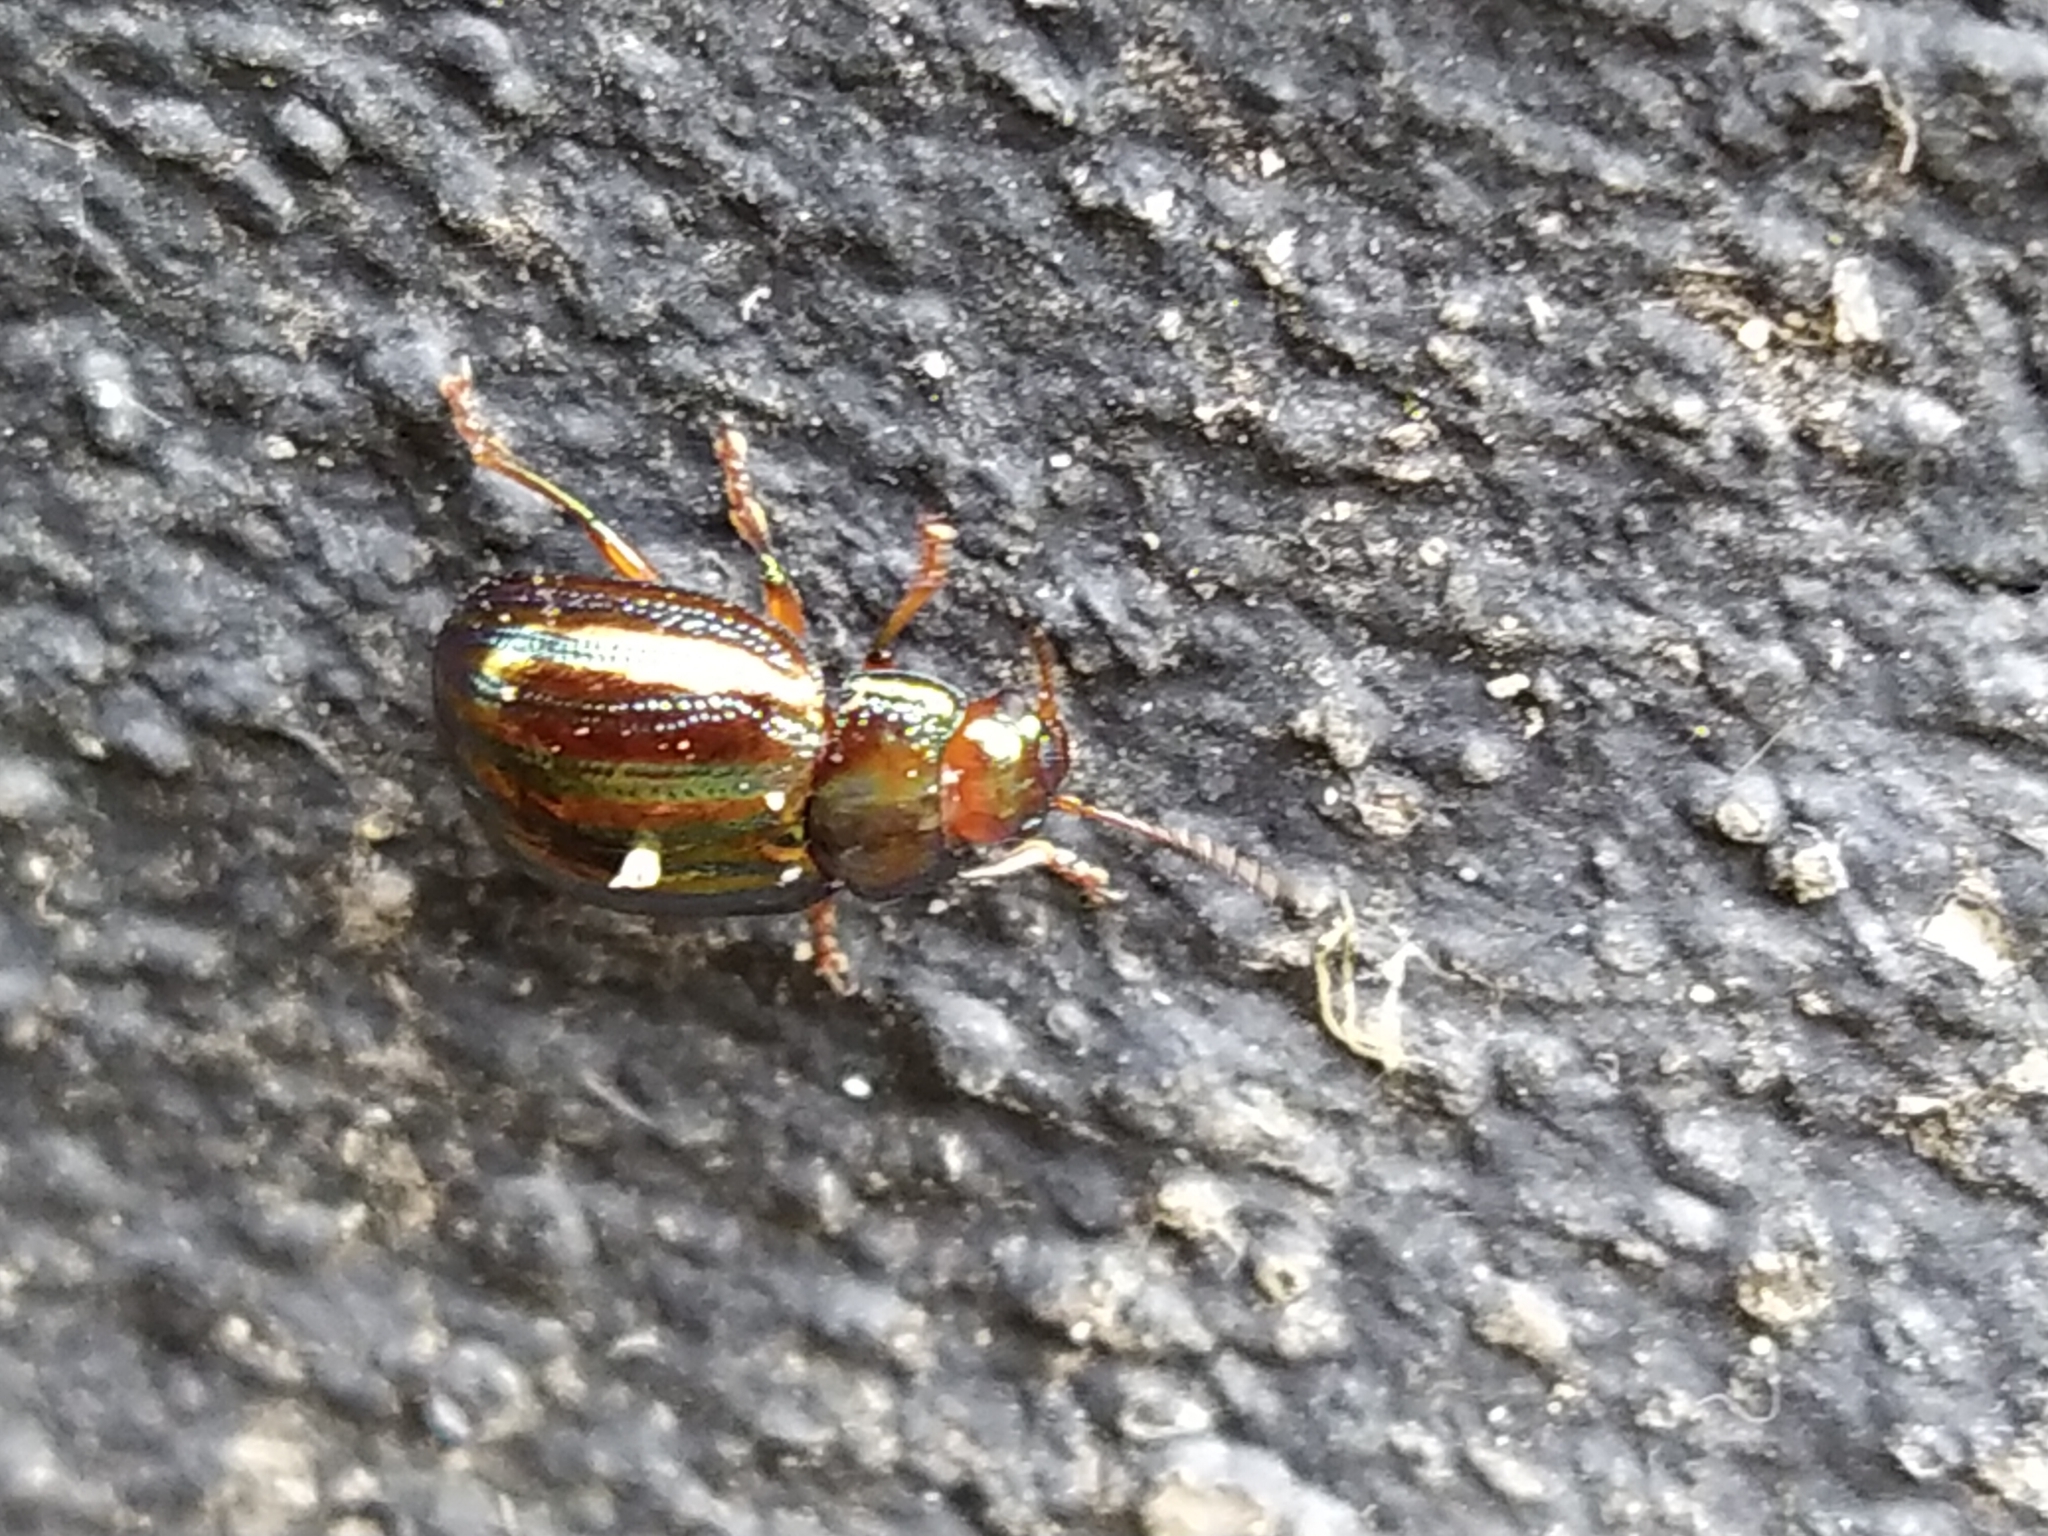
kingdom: Animalia
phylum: Arthropoda
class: Insecta
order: Coleoptera
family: Chrysomelidae
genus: Chrysolina
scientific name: Chrysolina americana
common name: Rosemary beetle
